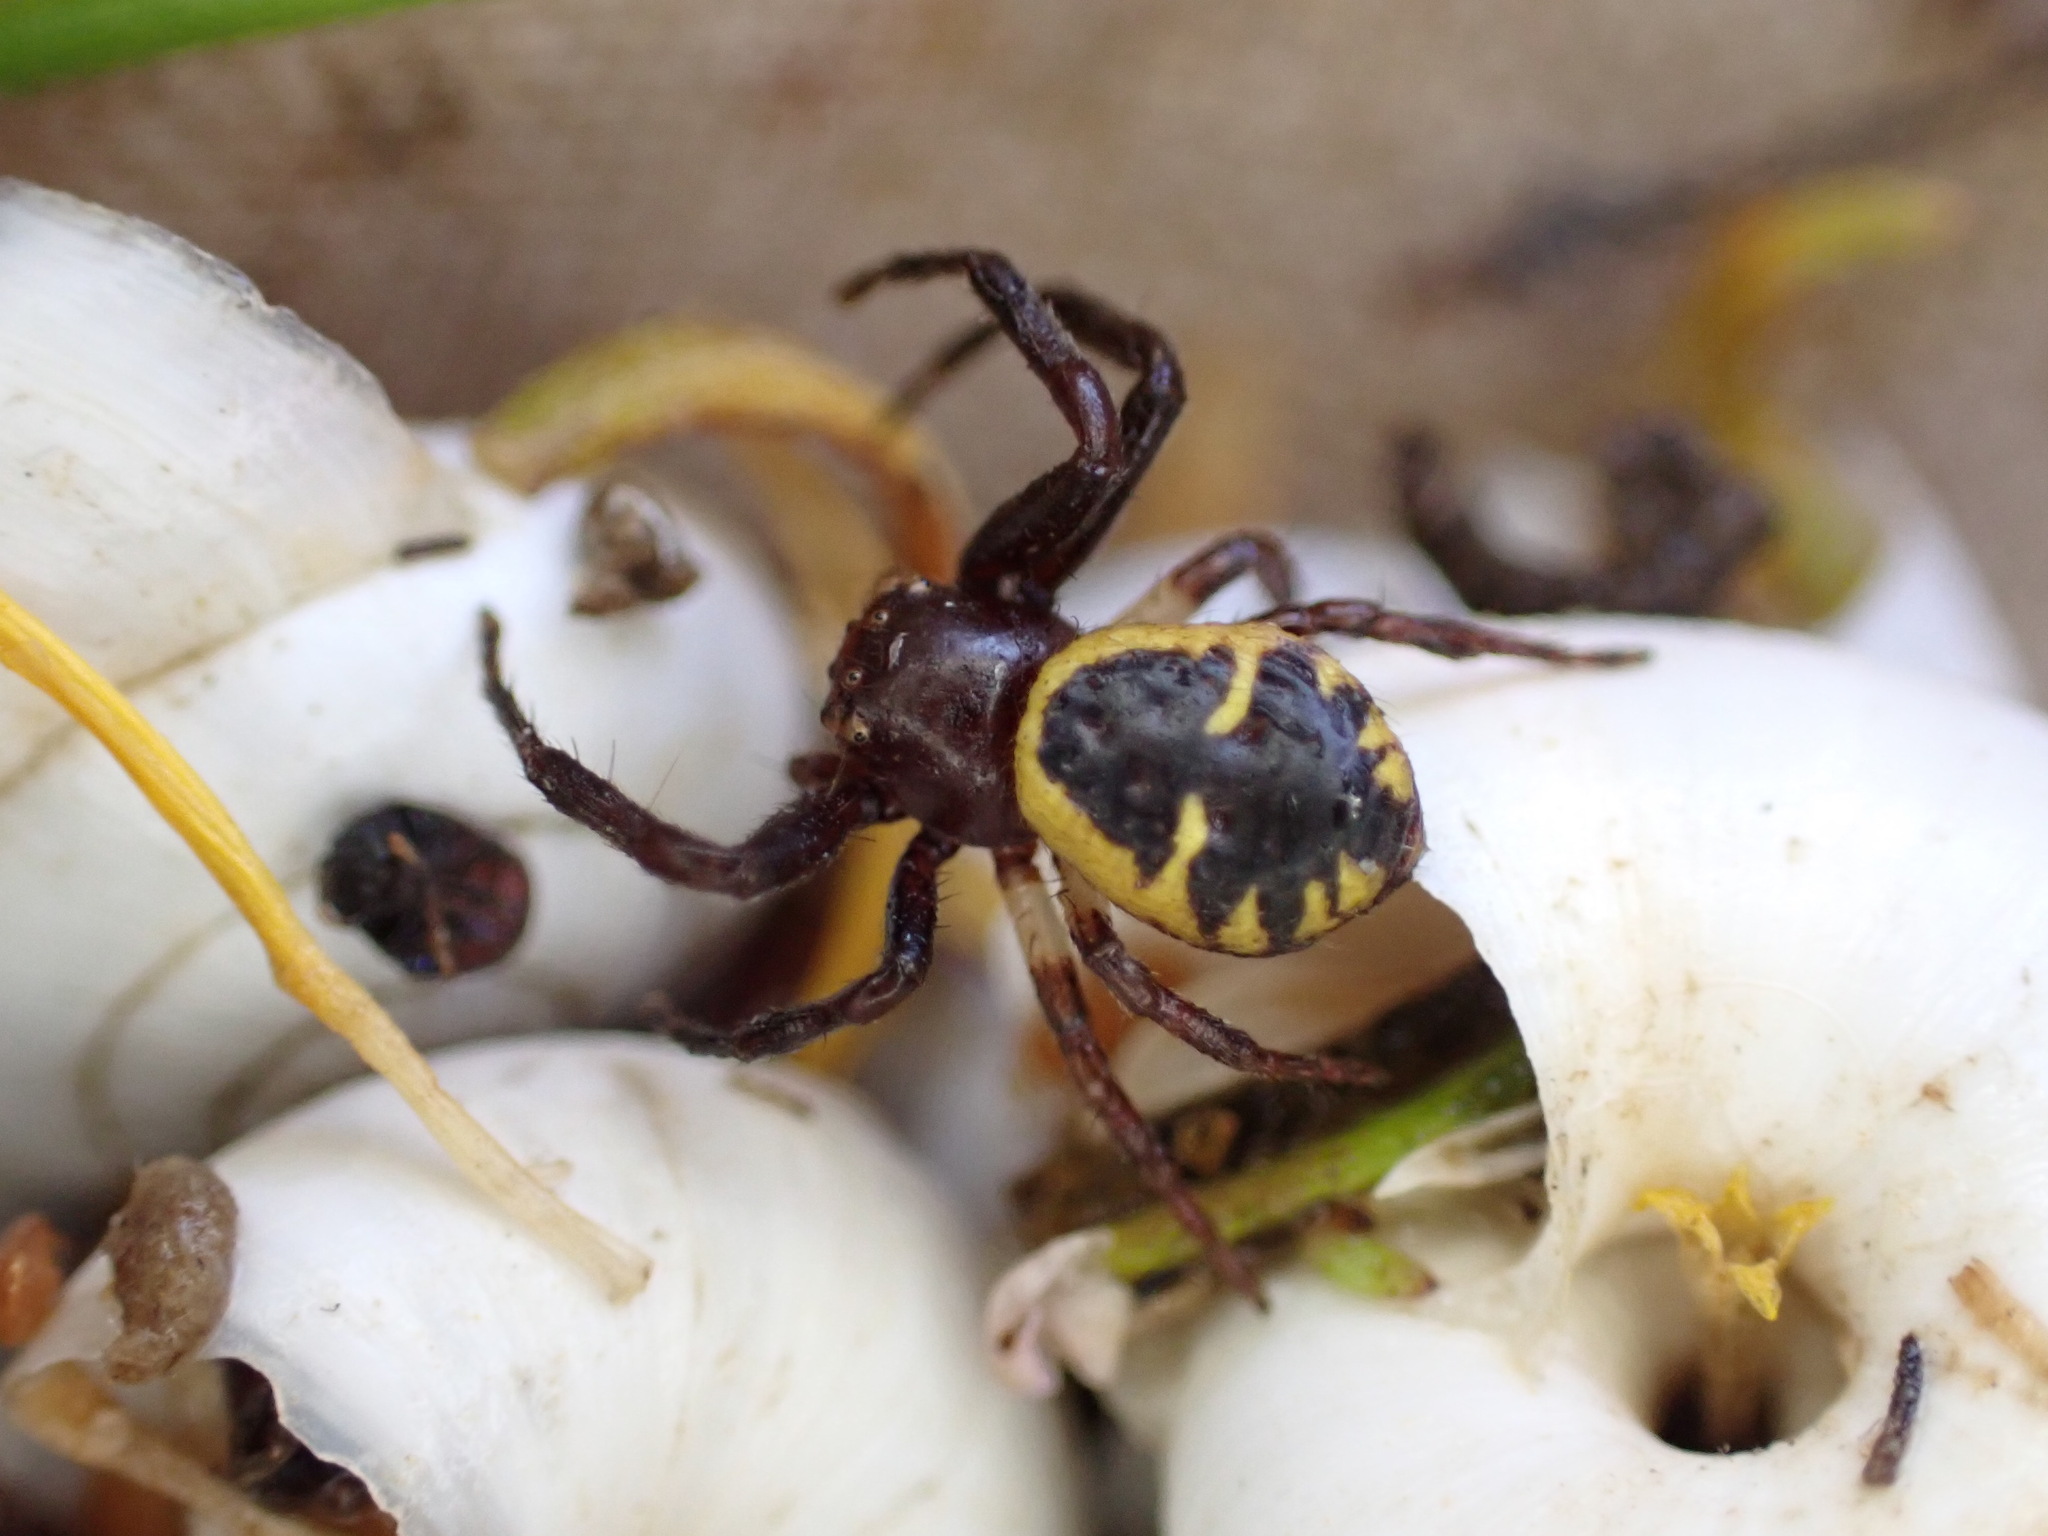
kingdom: Animalia
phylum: Arthropoda
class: Arachnida
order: Araneae
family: Thomisidae
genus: Synema
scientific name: Synema globosum
